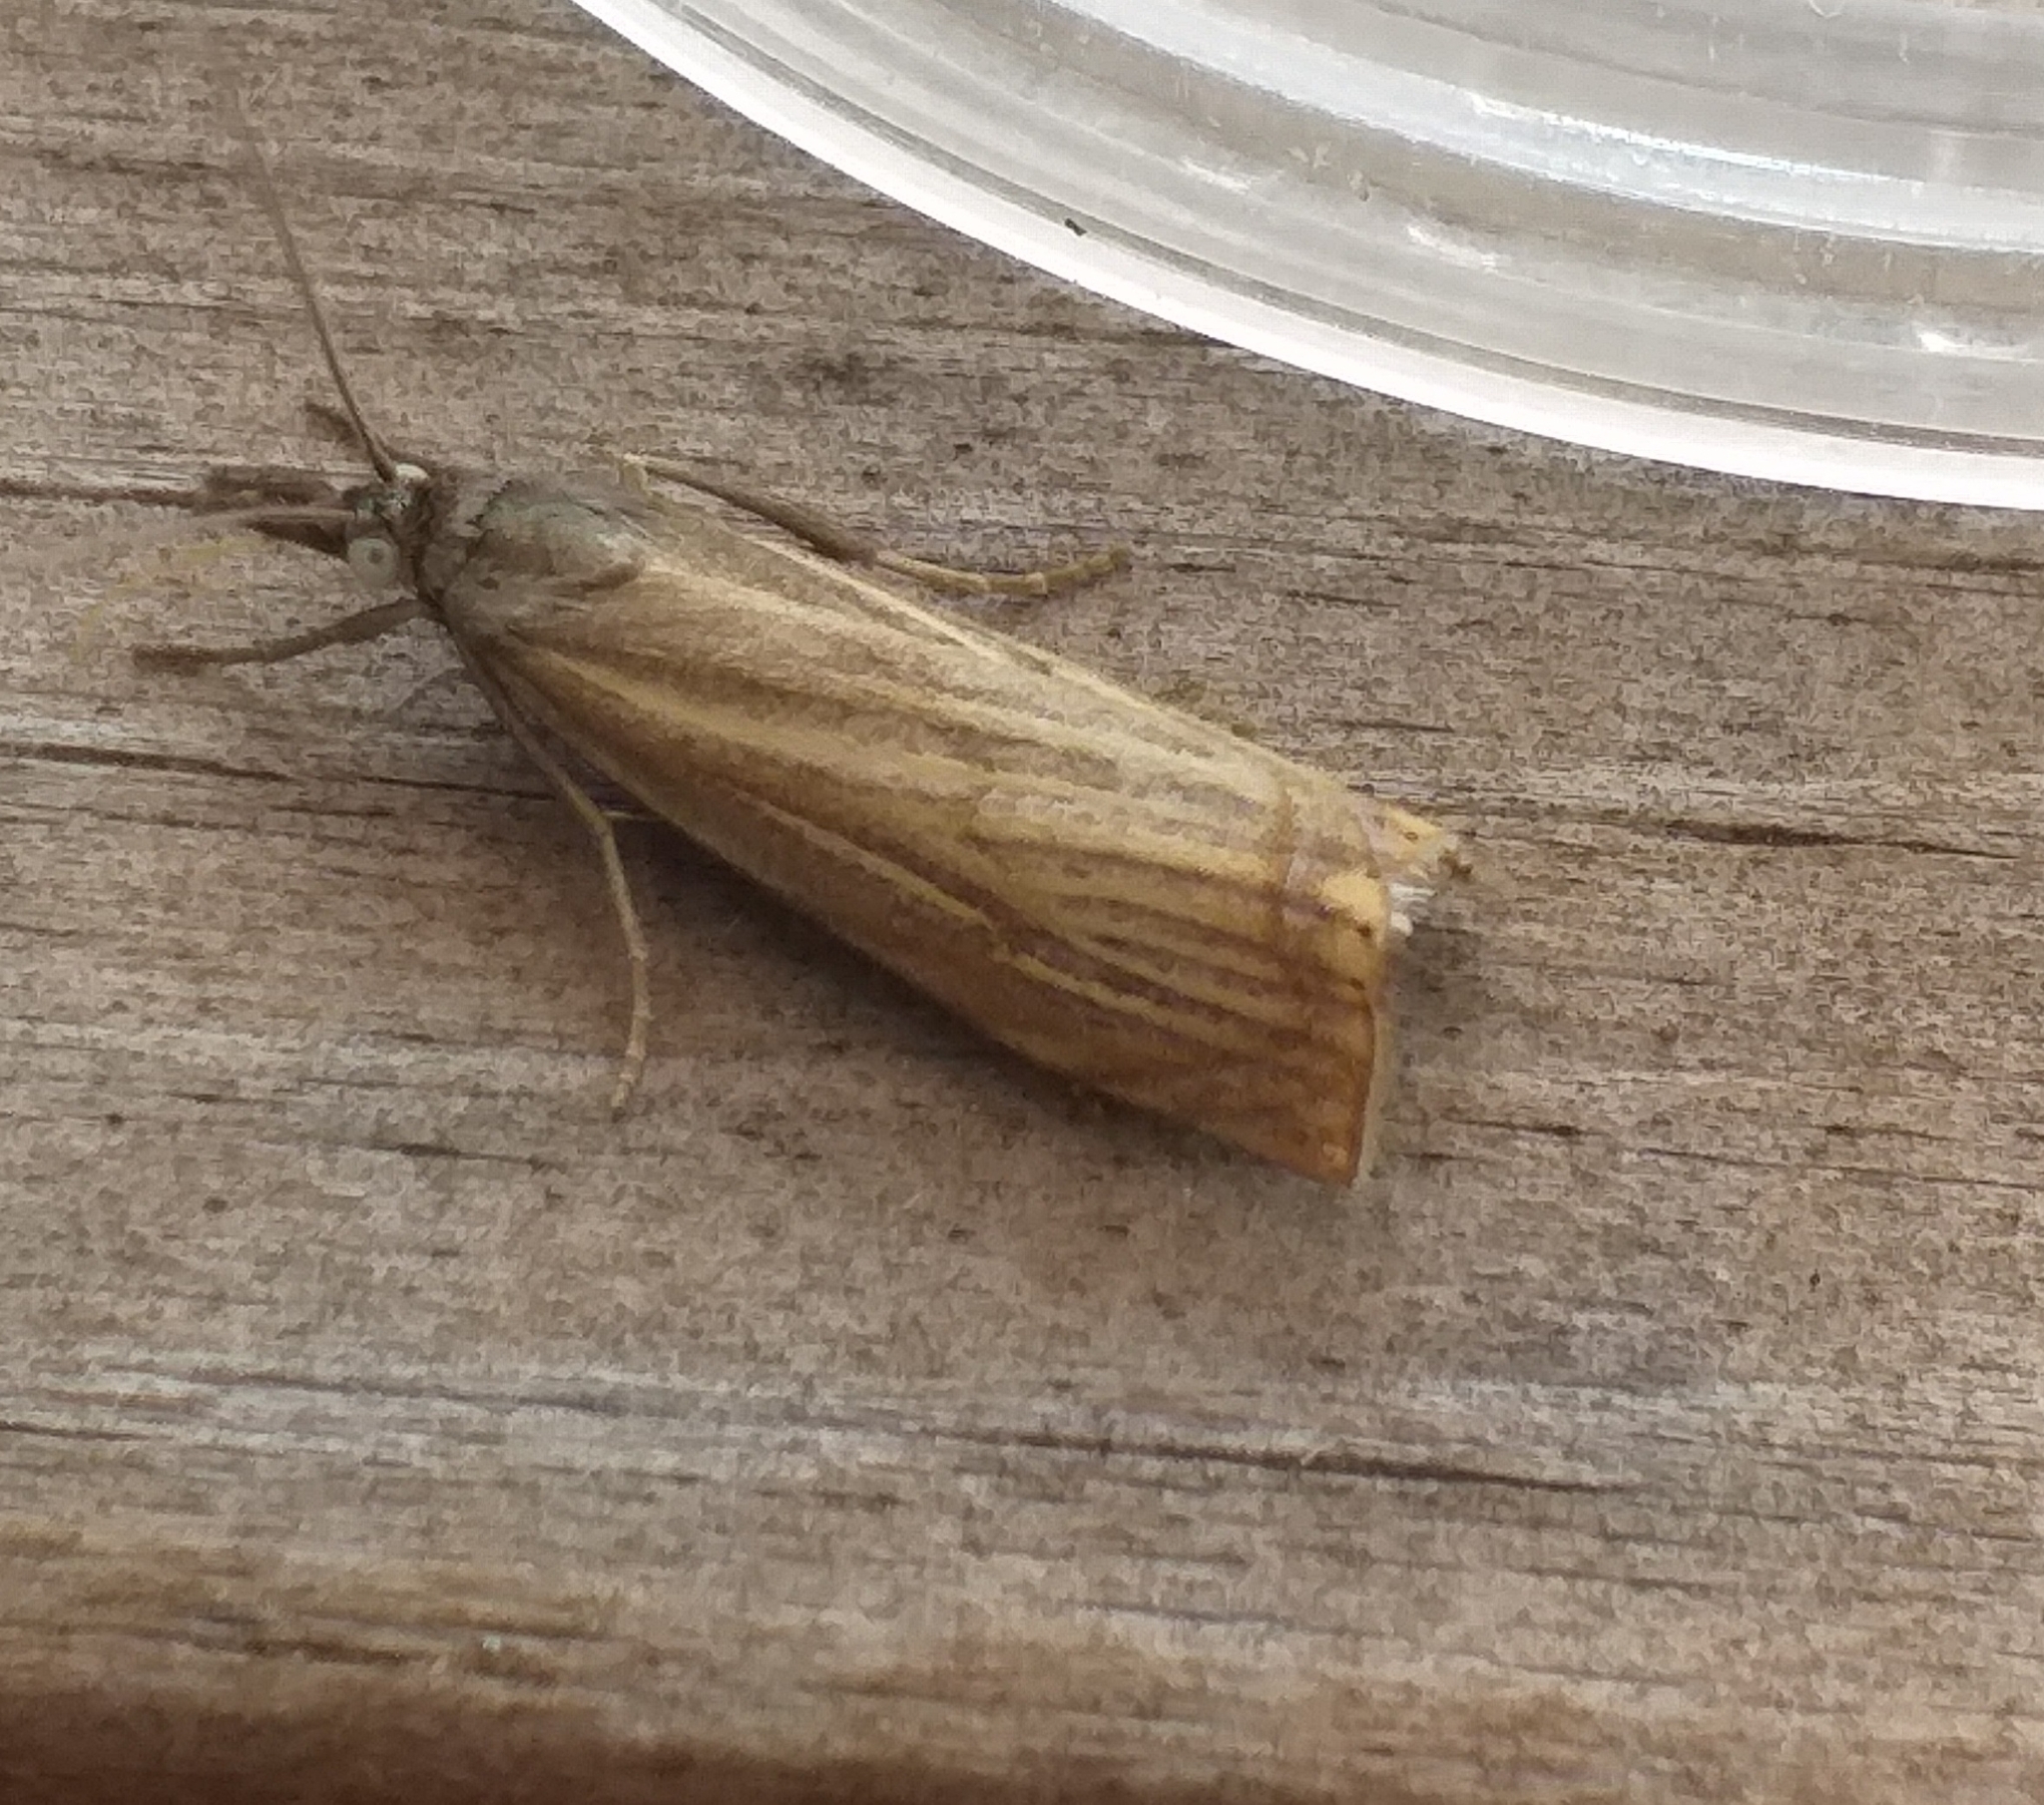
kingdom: Animalia
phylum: Arthropoda
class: Insecta
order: Lepidoptera
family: Crambidae
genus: Chrysoteuchia
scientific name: Chrysoteuchia culmella
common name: Garden grass-veneer
